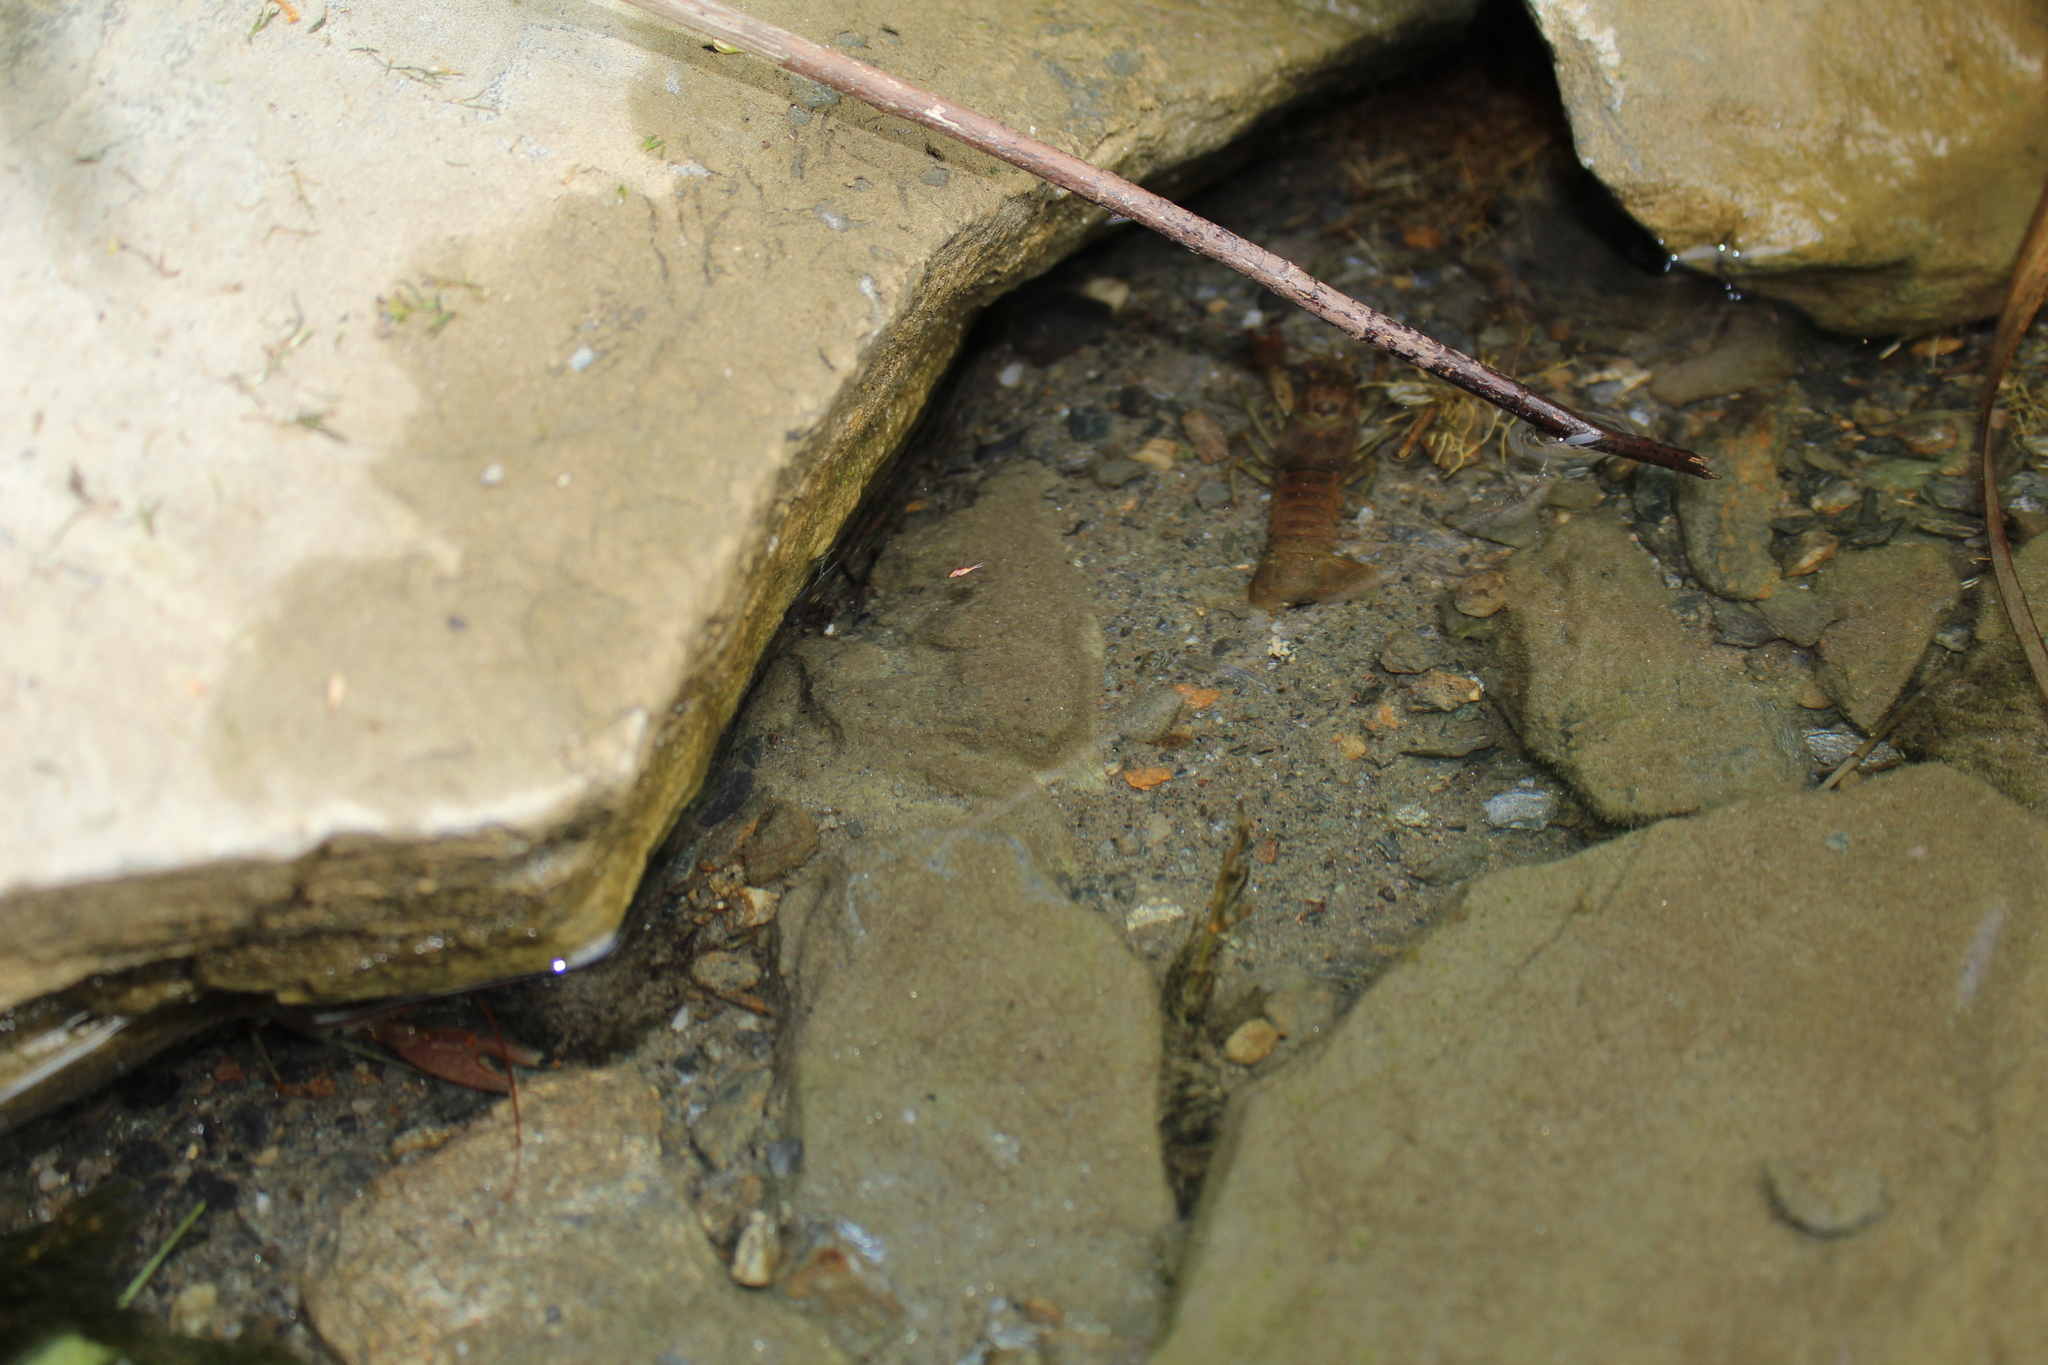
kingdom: Animalia
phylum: Arthropoda
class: Malacostraca
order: Decapoda
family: Cambaridae
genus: Faxonius
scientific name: Faxonius rusticus
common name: Rusty crayfish
